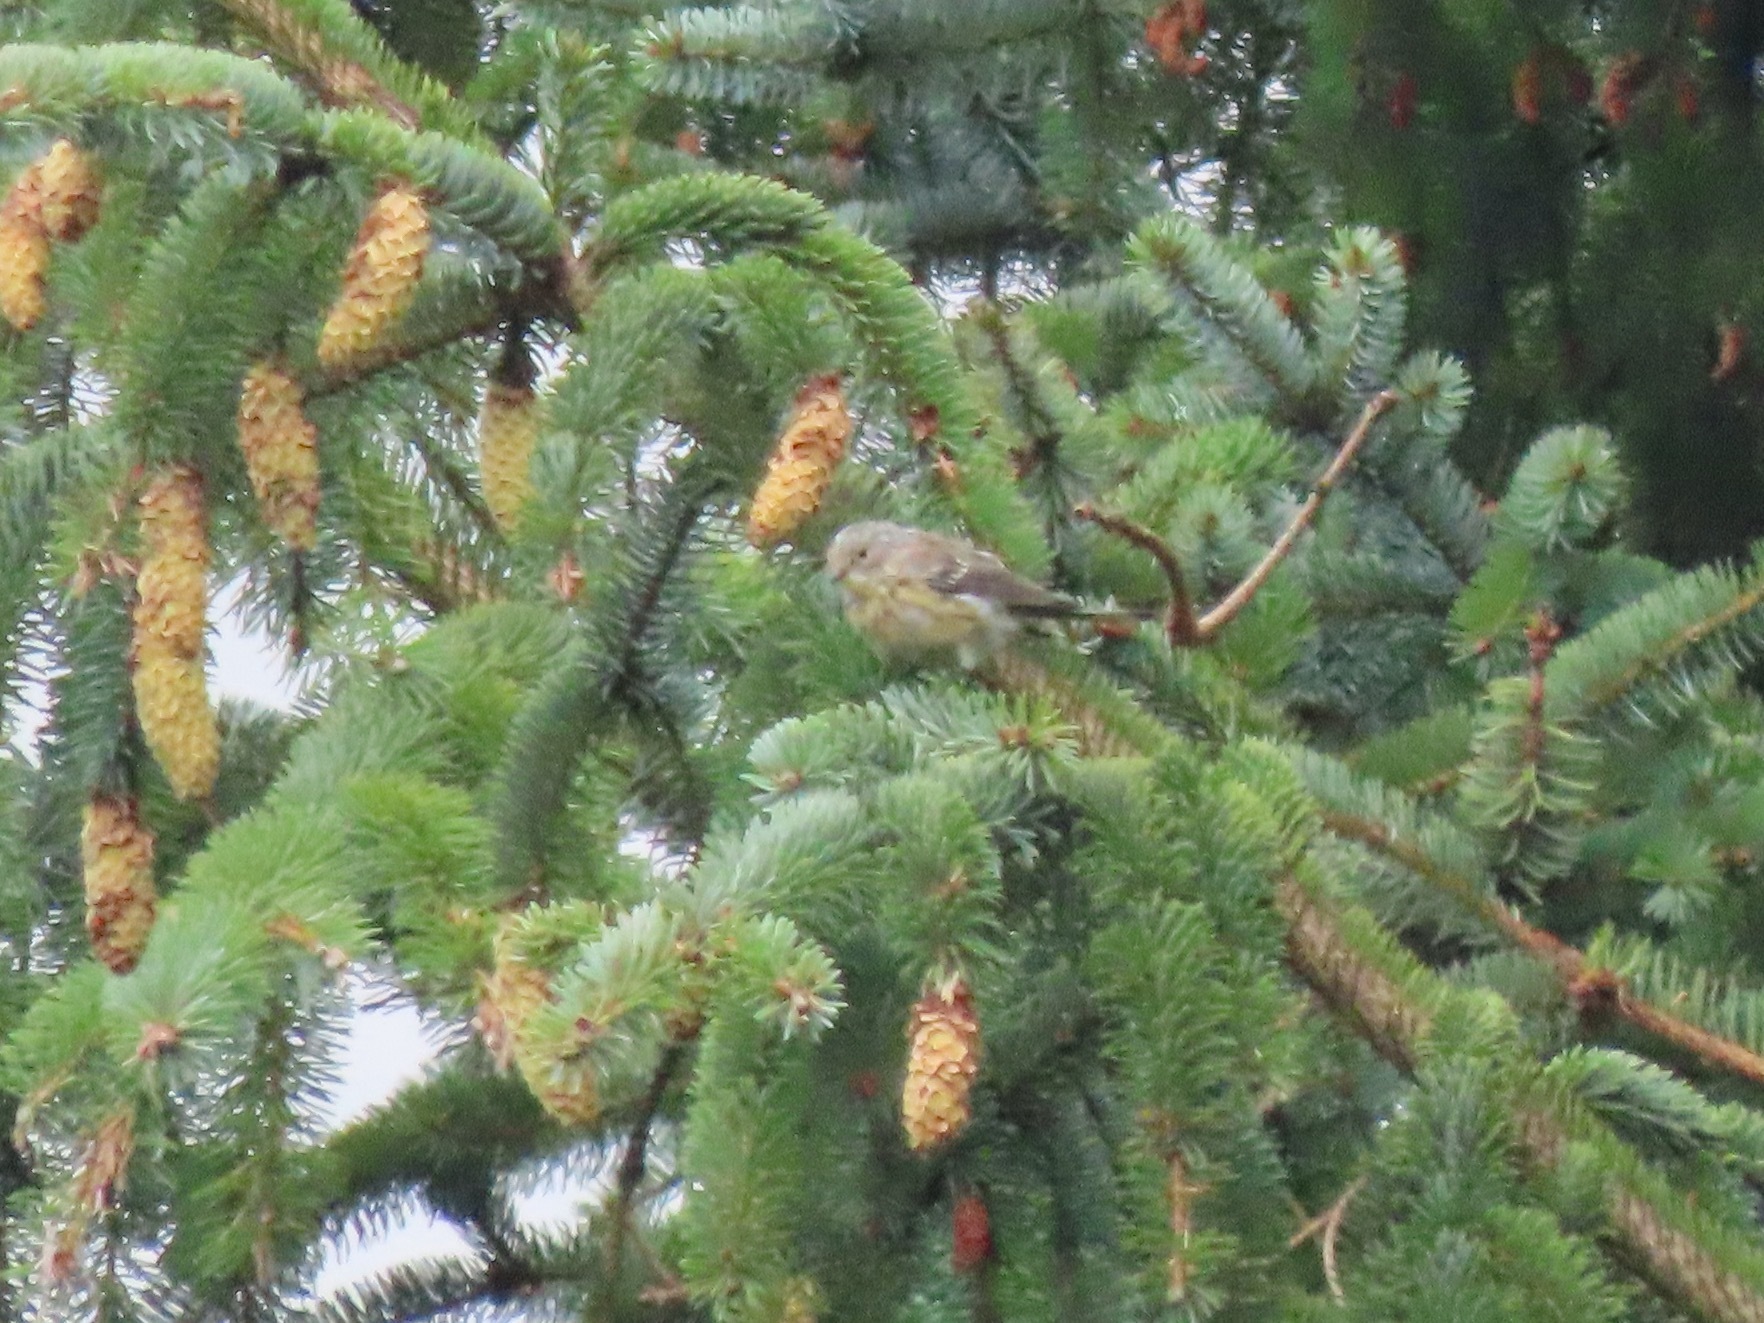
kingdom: Animalia
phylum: Chordata
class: Aves
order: Passeriformes
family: Parulidae
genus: Setophaga
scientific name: Setophaga coronata
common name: Myrtle warbler
